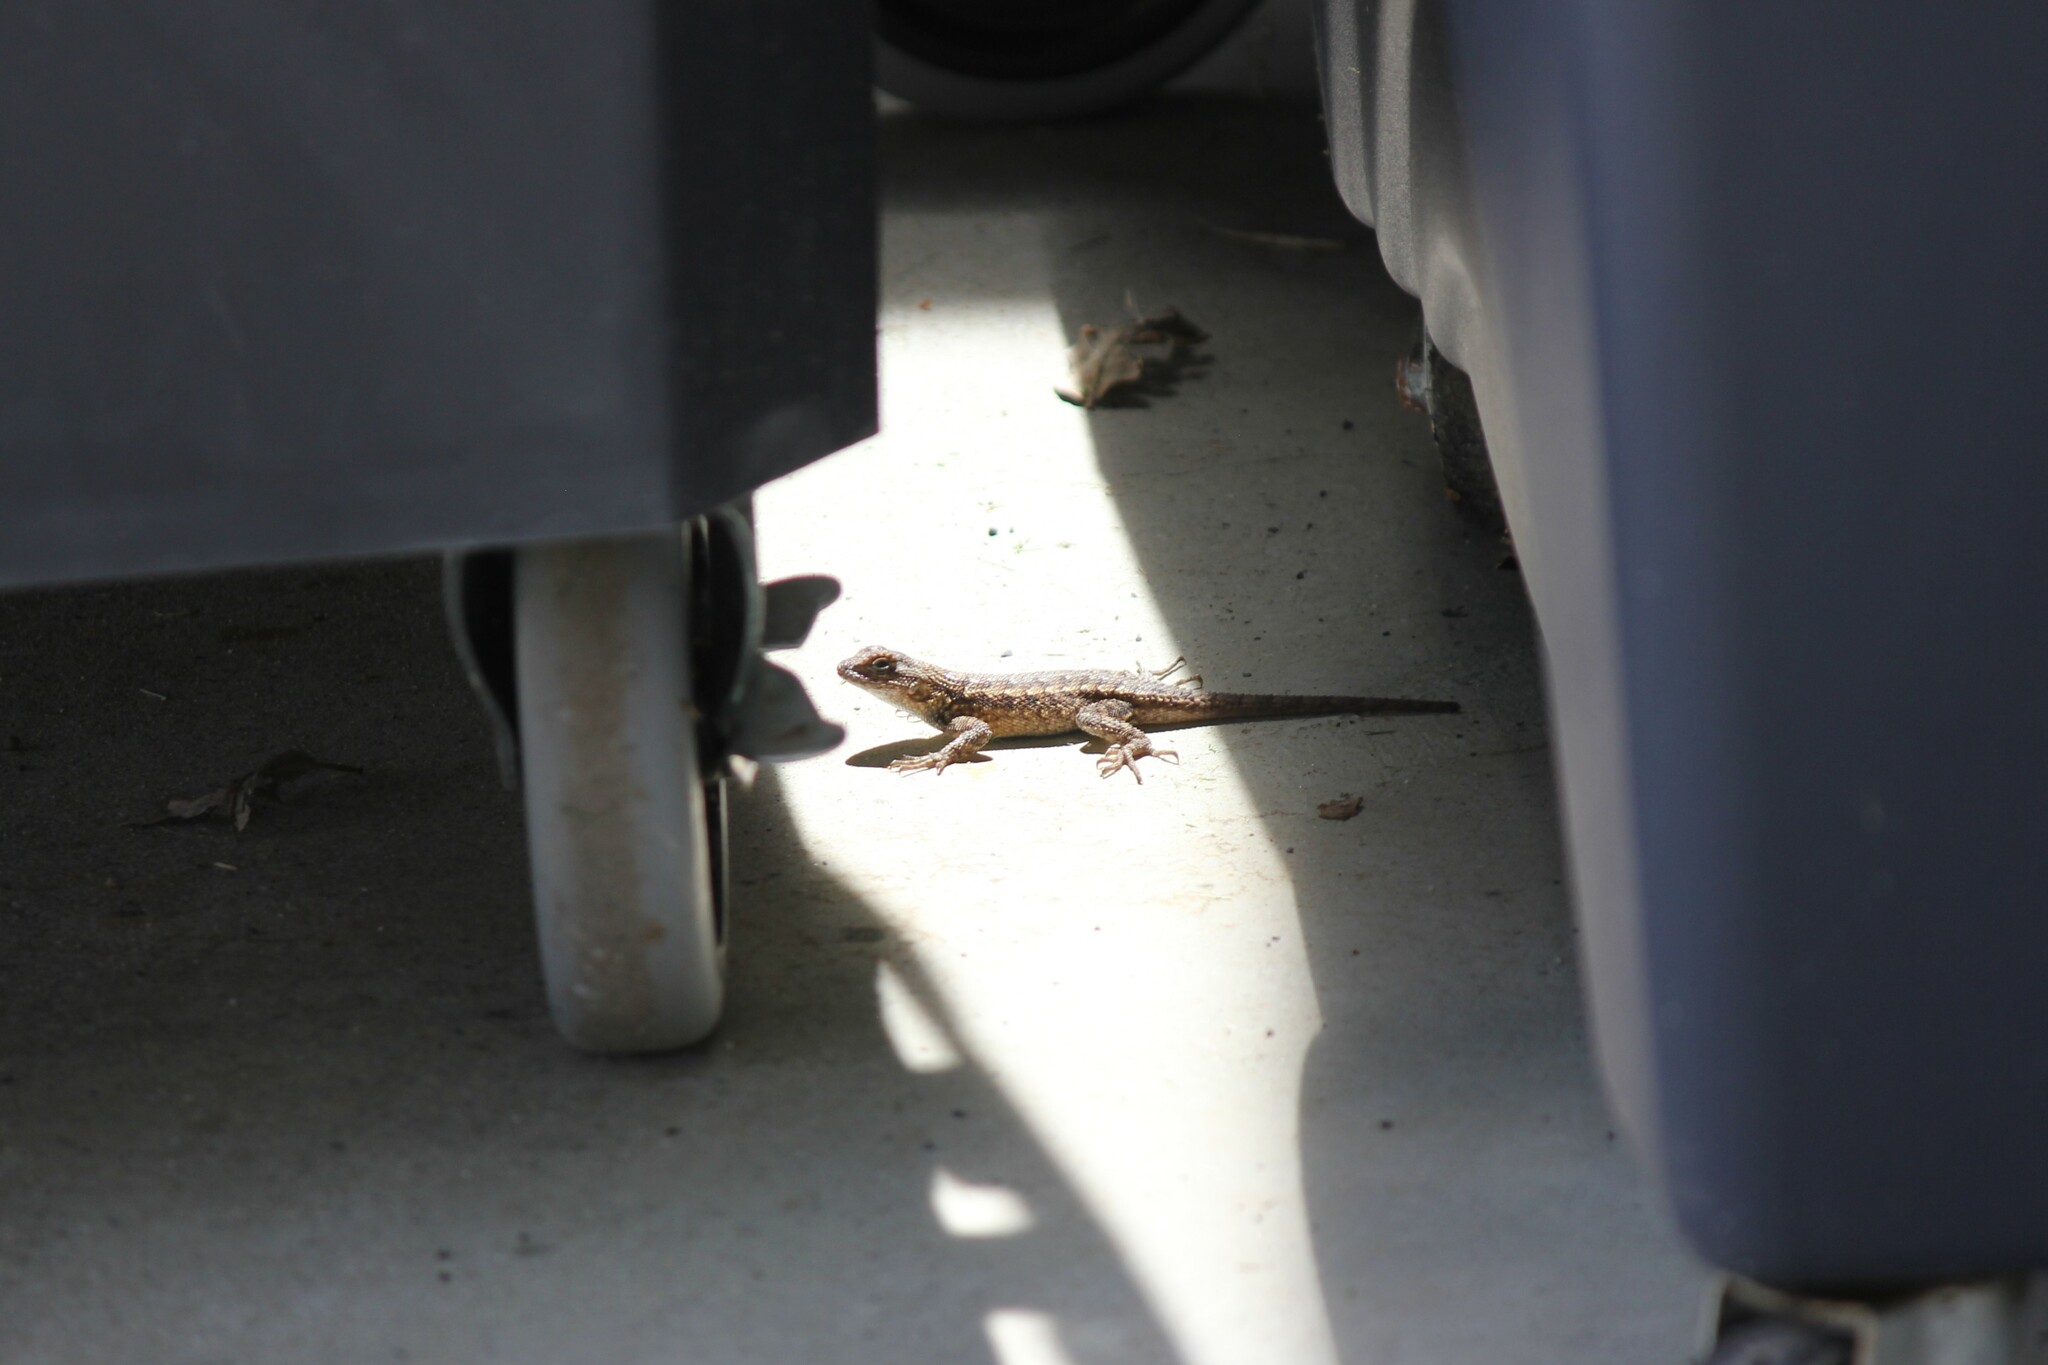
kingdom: Animalia
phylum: Chordata
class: Squamata
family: Phrynosomatidae
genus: Sceloporus
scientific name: Sceloporus occidentalis
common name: Western fence lizard
